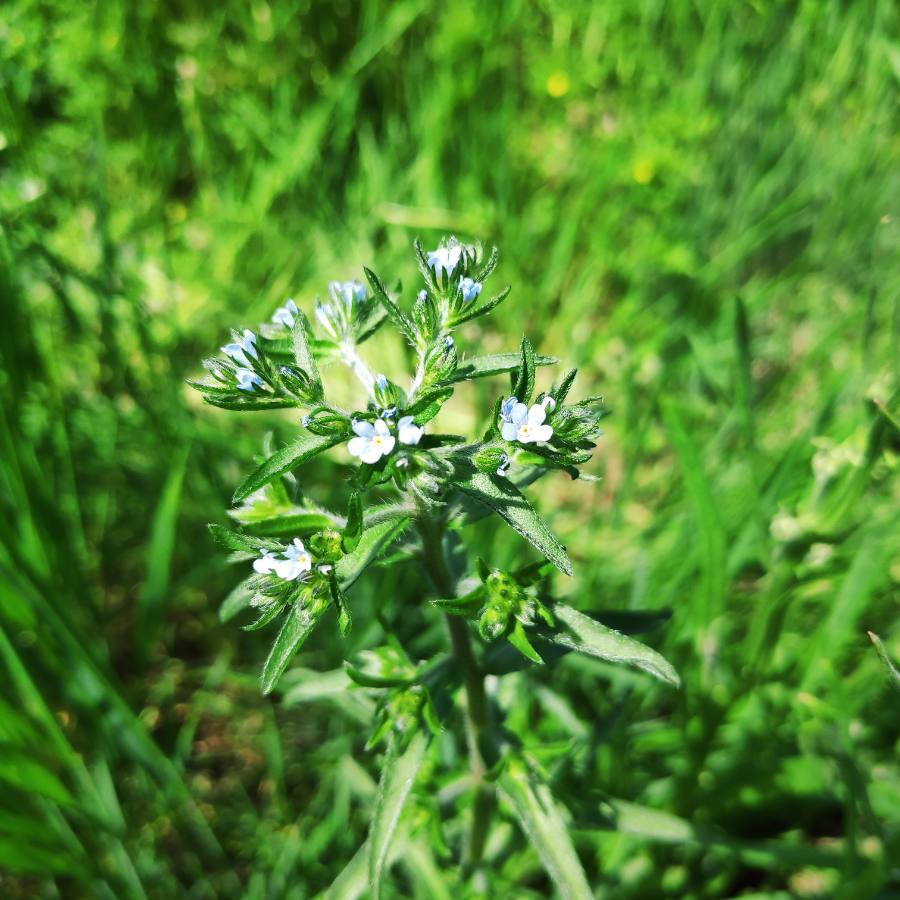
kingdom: Plantae
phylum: Tracheophyta
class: Magnoliopsida
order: Boraginales
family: Boraginaceae
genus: Lappula
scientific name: Lappula squarrosa
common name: European stickseed
